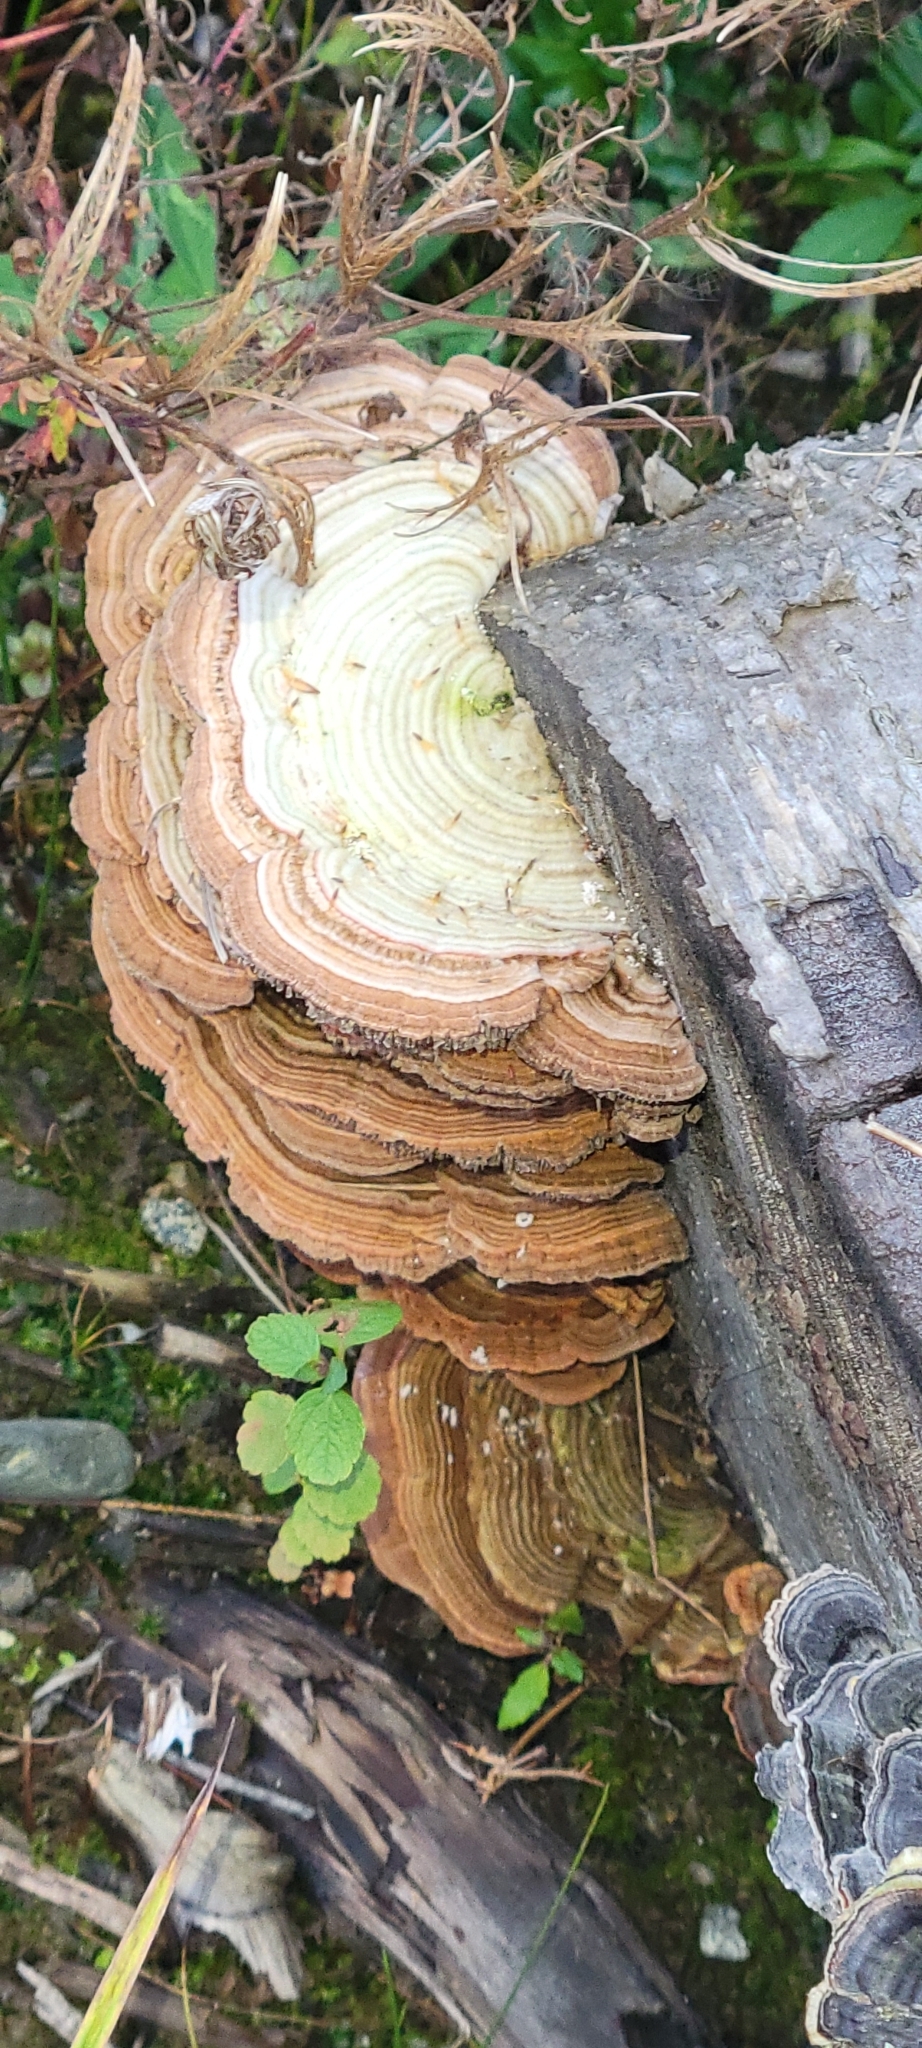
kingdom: Fungi
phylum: Basidiomycota
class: Agaricomycetes
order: Polyporales
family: Polyporaceae
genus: Lenzites
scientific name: Lenzites betulinus
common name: Birch mazegill
